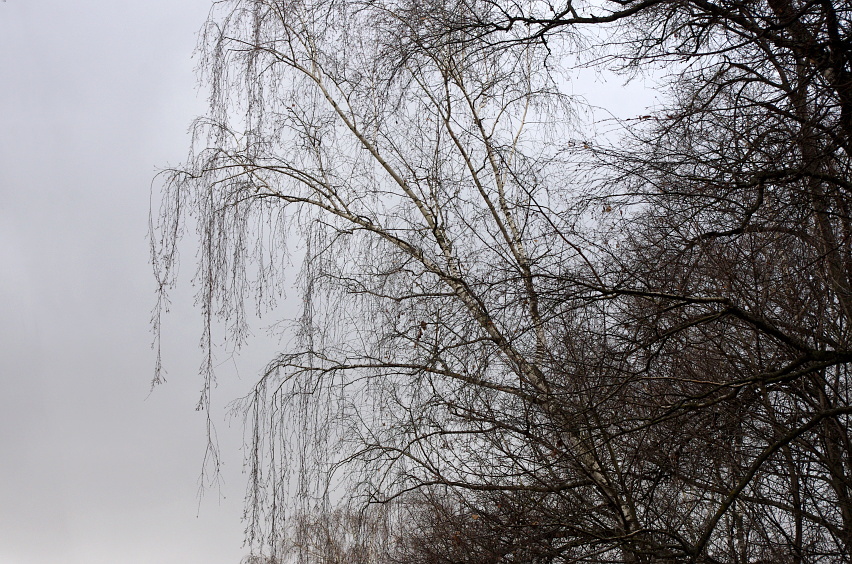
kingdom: Plantae
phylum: Tracheophyta
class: Magnoliopsida
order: Fagales
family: Betulaceae
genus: Betula
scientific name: Betula pendula
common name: Silver birch
